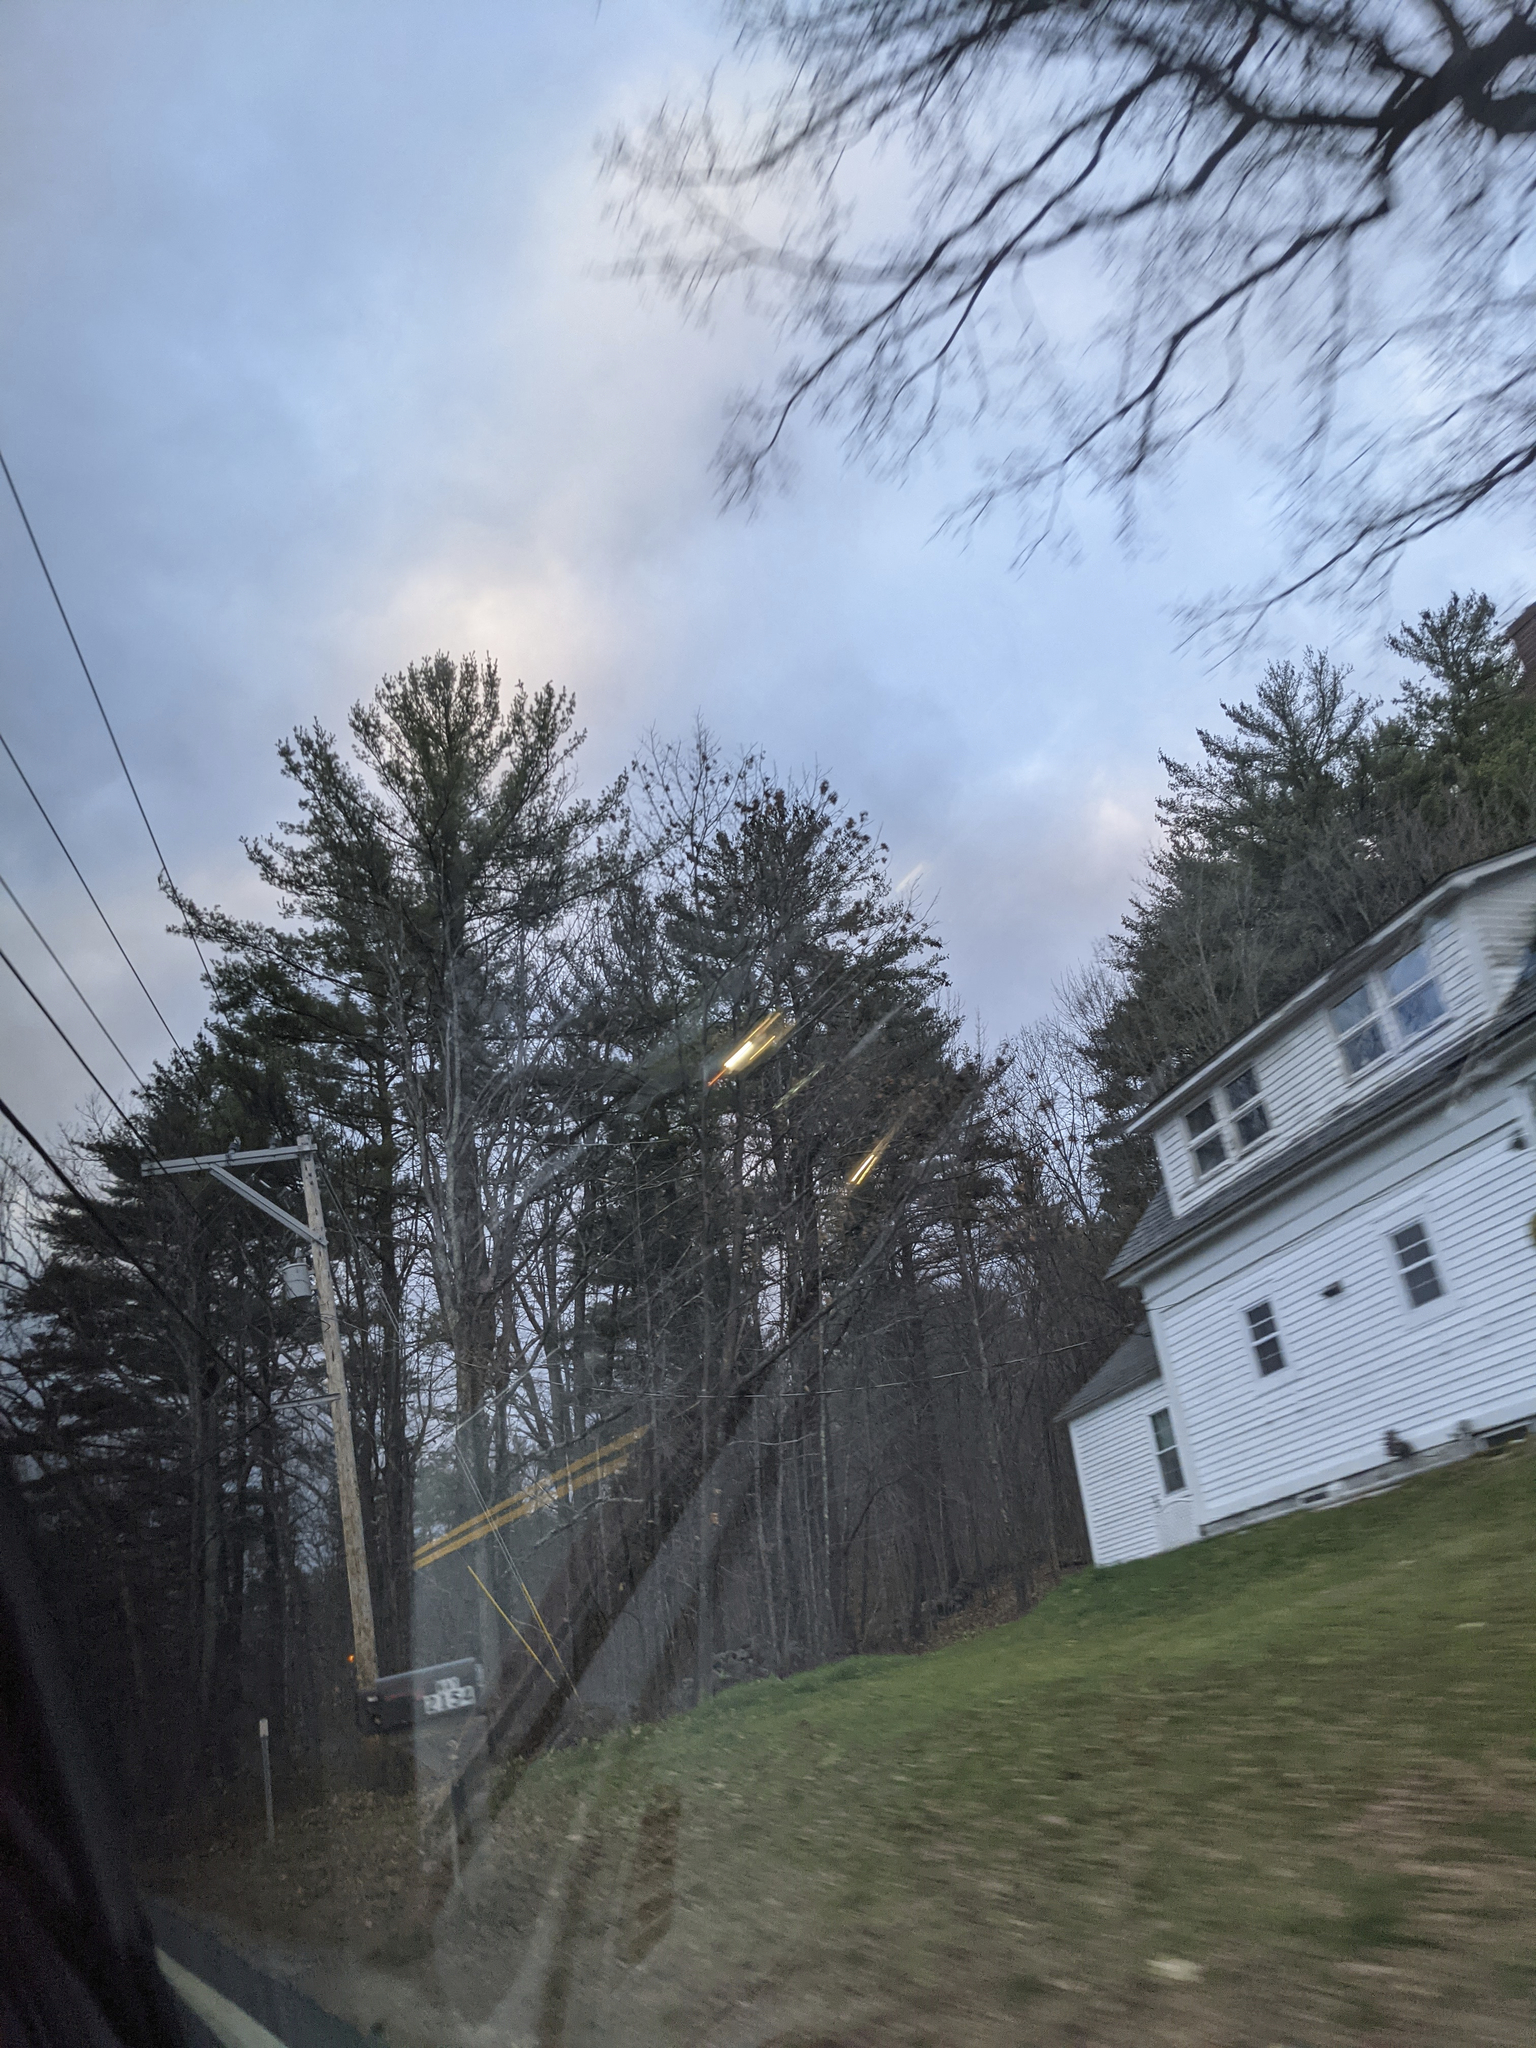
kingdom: Plantae
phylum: Tracheophyta
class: Pinopsida
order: Pinales
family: Pinaceae
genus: Pinus
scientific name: Pinus strobus
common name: Weymouth pine
